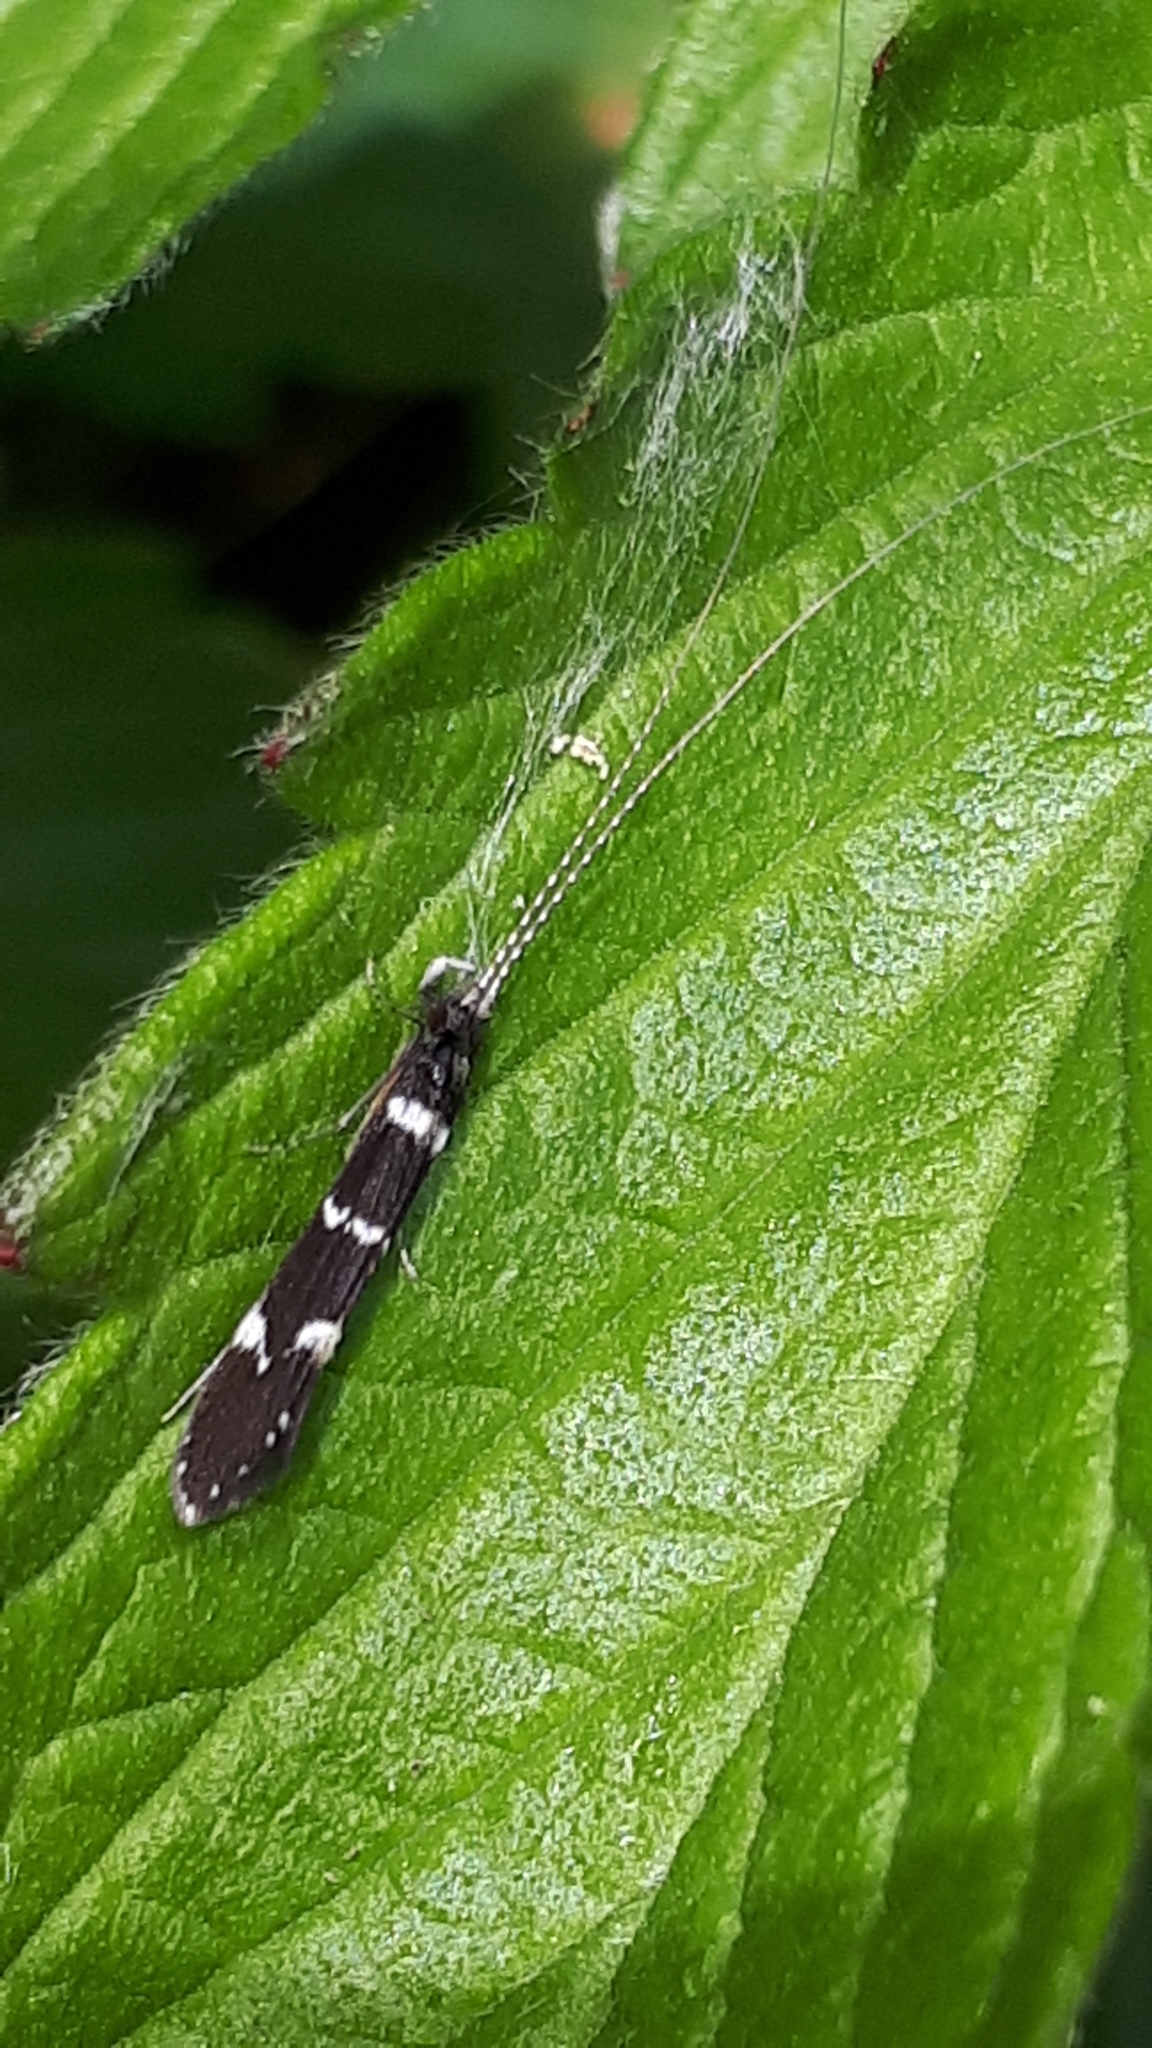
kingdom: Animalia
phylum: Arthropoda
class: Insecta
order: Trichoptera
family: Leptoceridae
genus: Leptocerus
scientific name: Leptocerus interruptus
